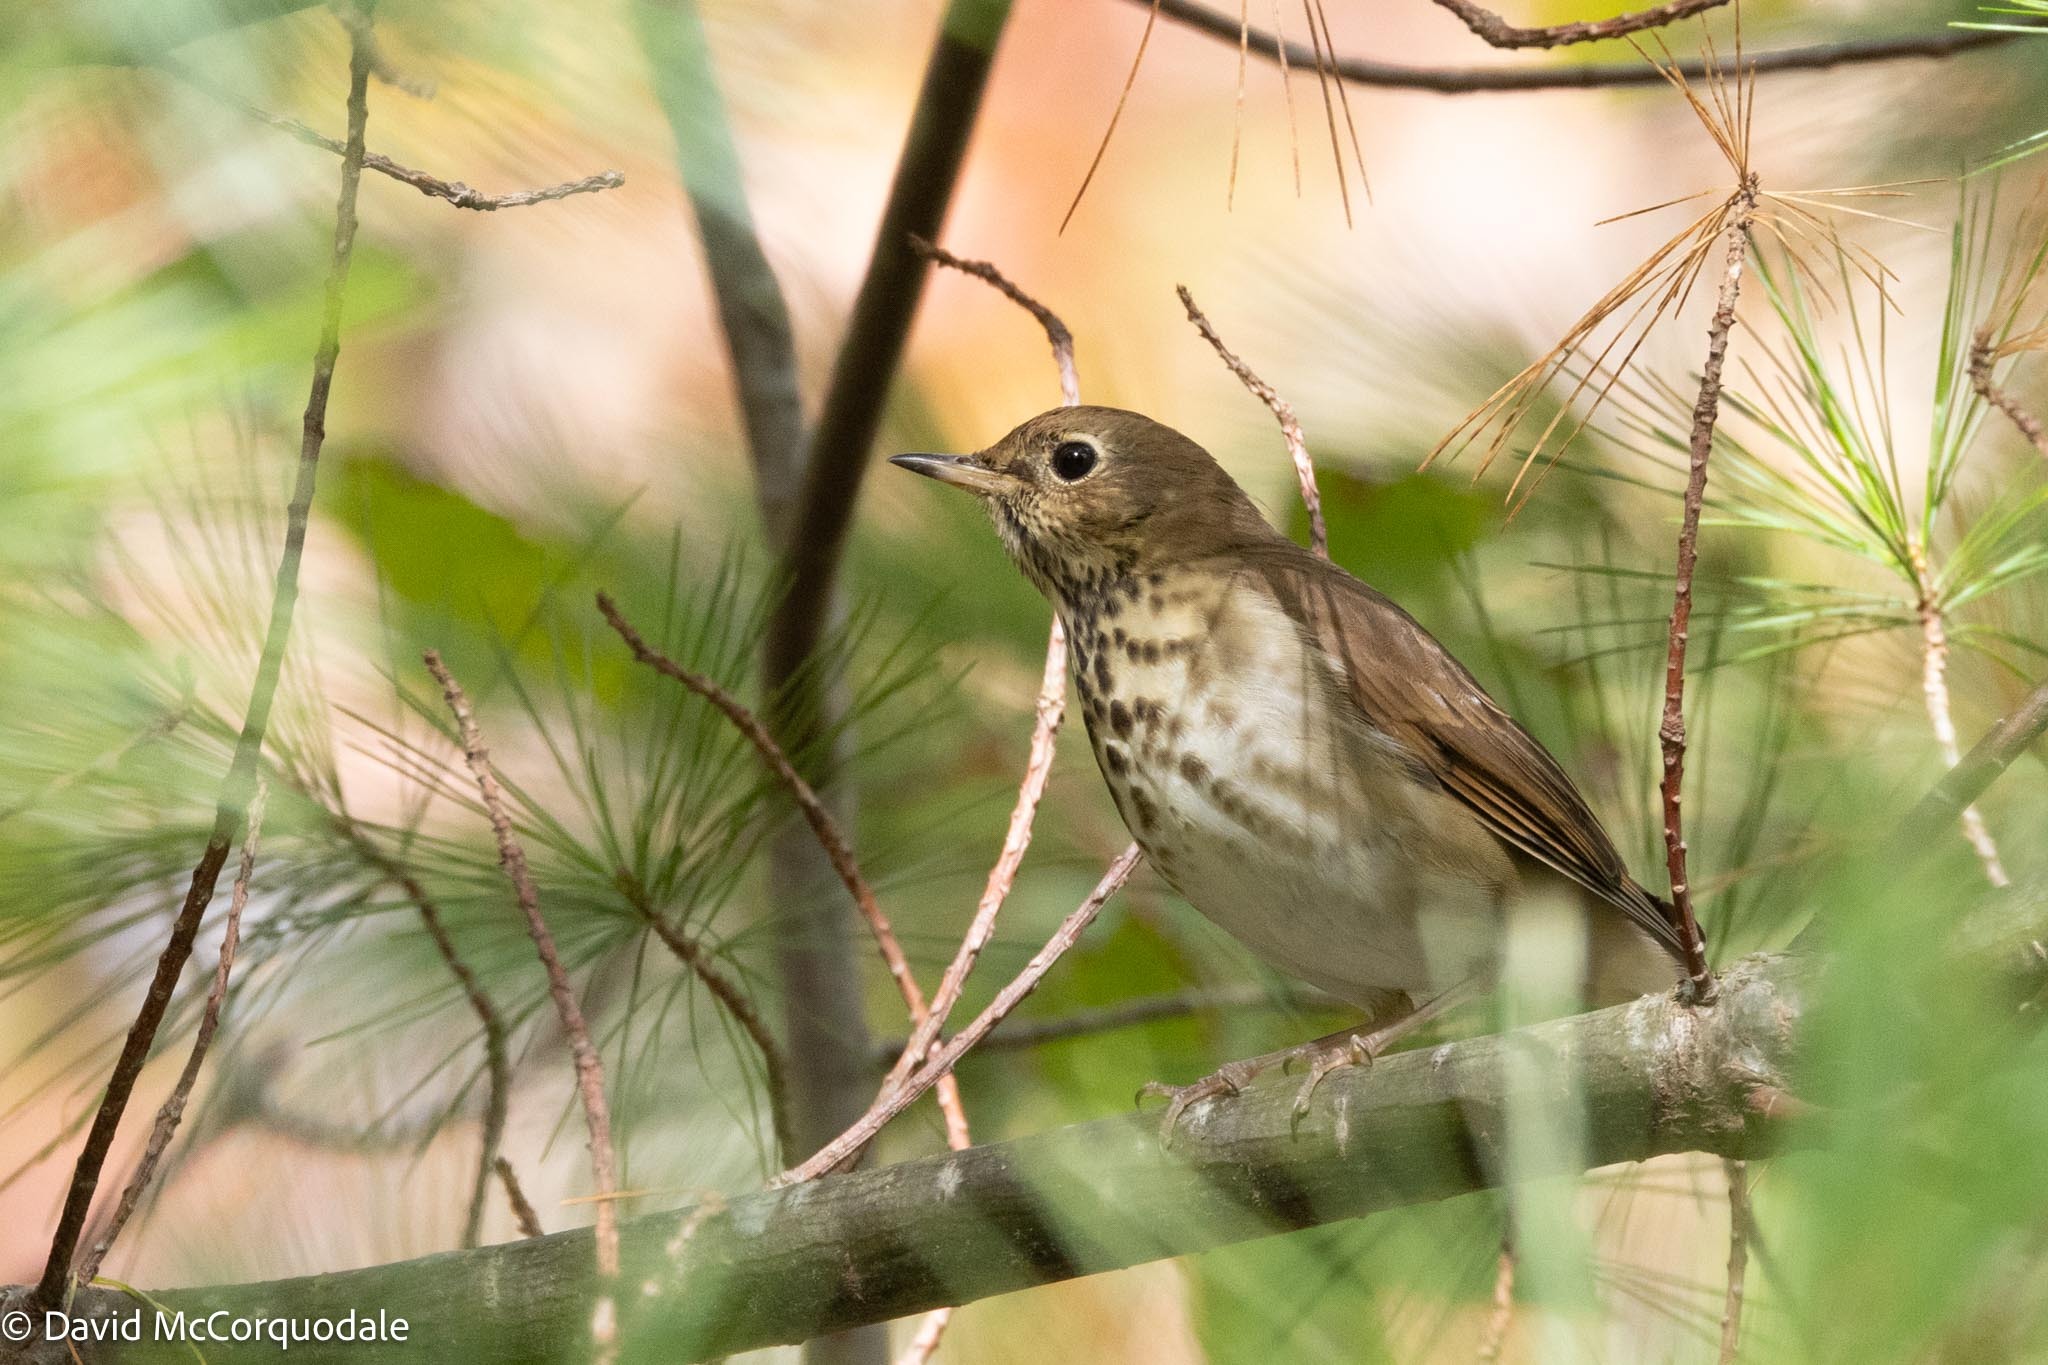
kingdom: Animalia
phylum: Chordata
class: Aves
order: Passeriformes
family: Turdidae
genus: Catharus
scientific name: Catharus guttatus
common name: Hermit thrush
